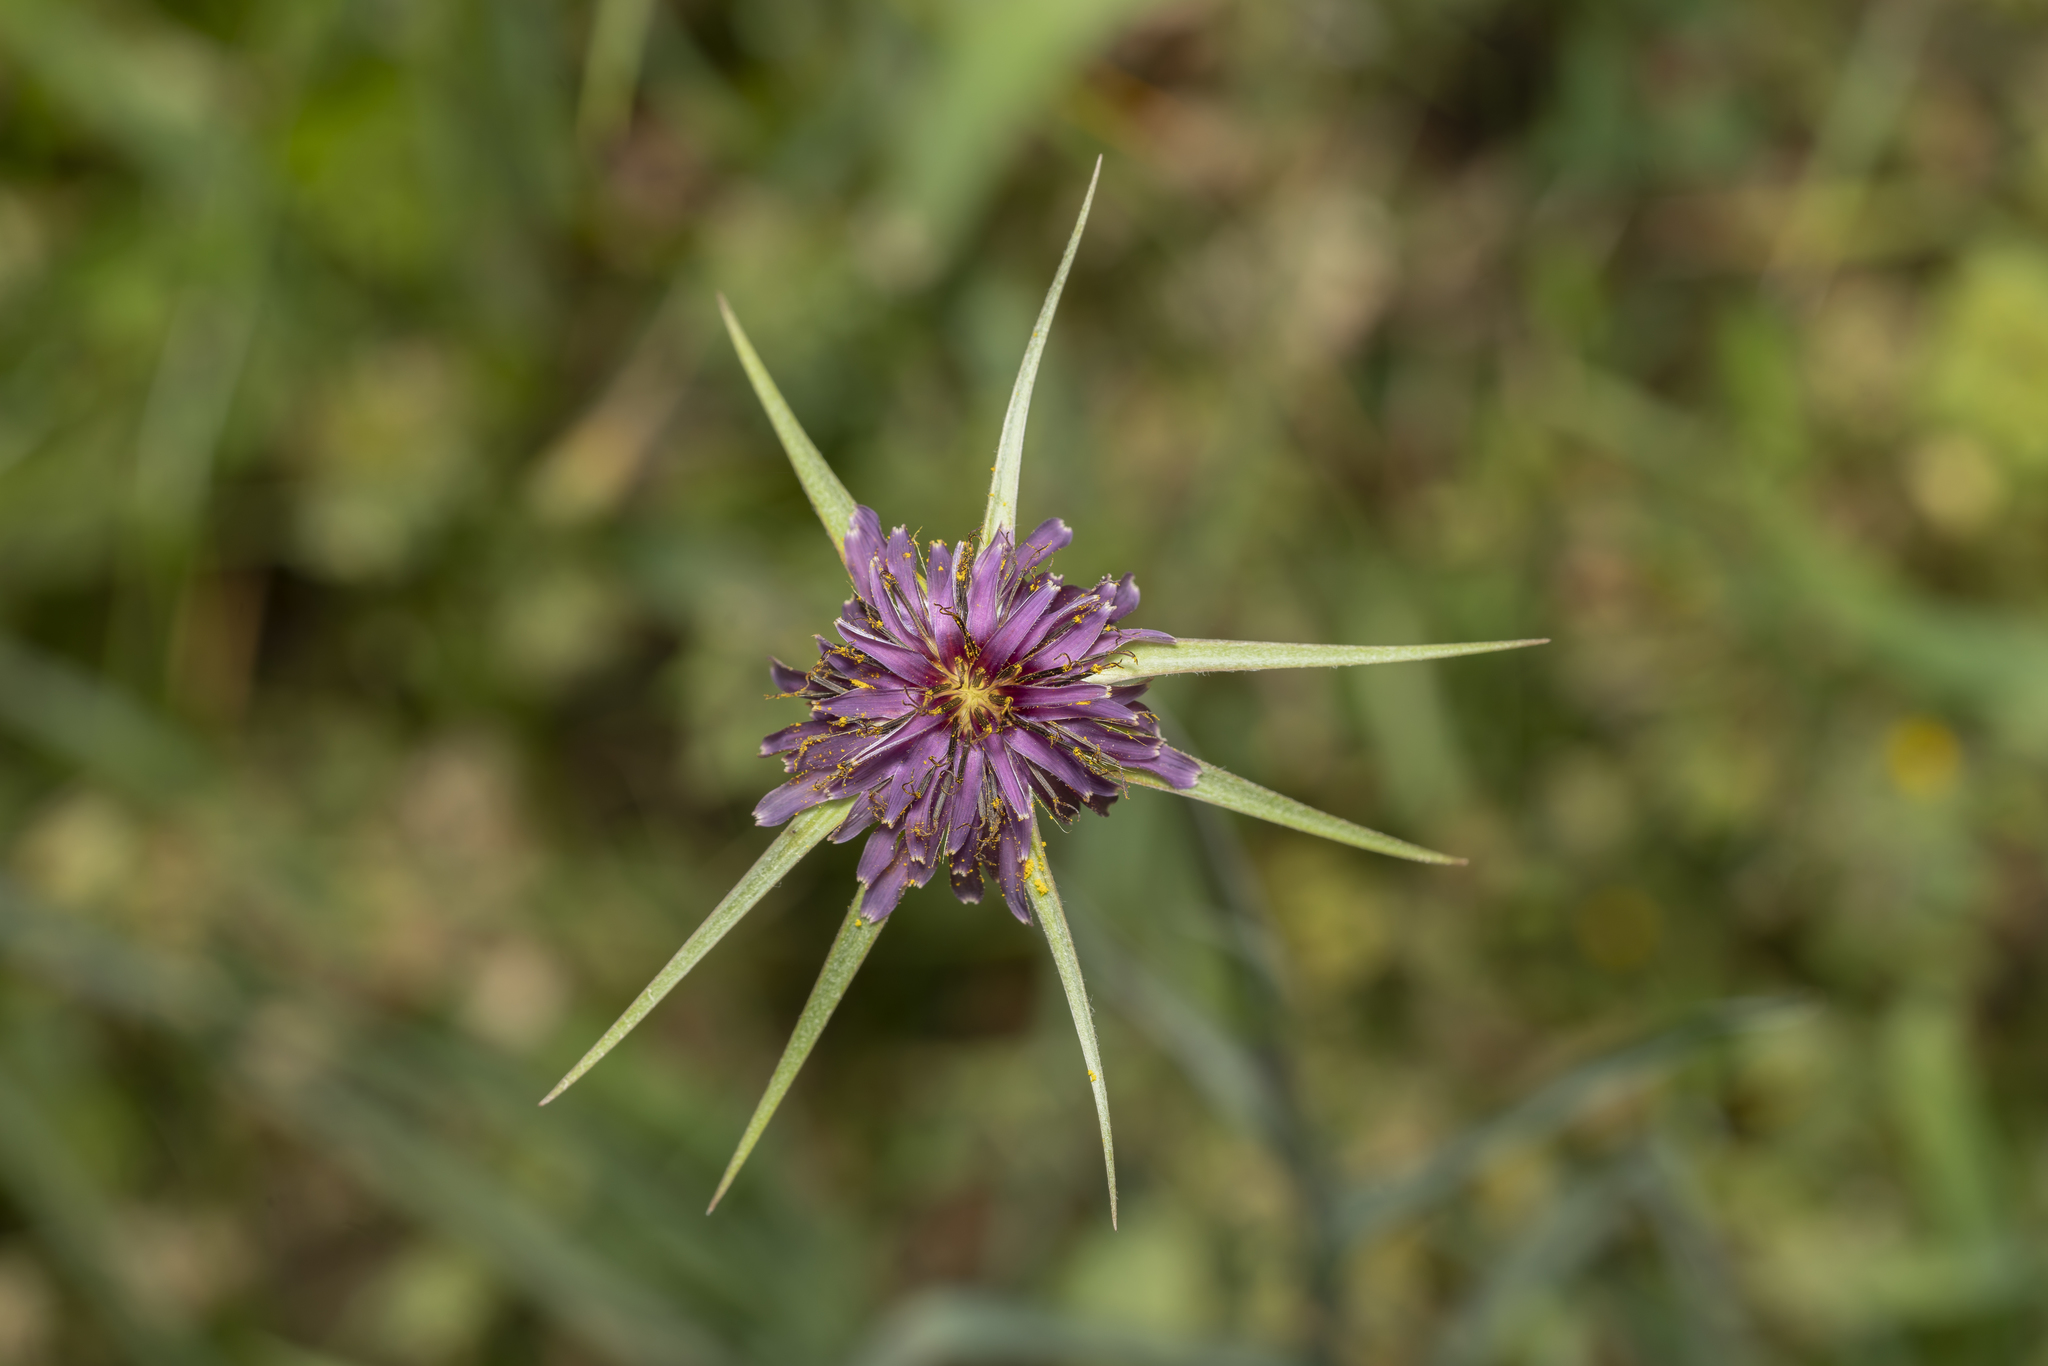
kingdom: Plantae
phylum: Tracheophyta
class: Magnoliopsida
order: Asterales
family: Asteraceae
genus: Tragopogon
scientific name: Tragopogon coelesyriacus
